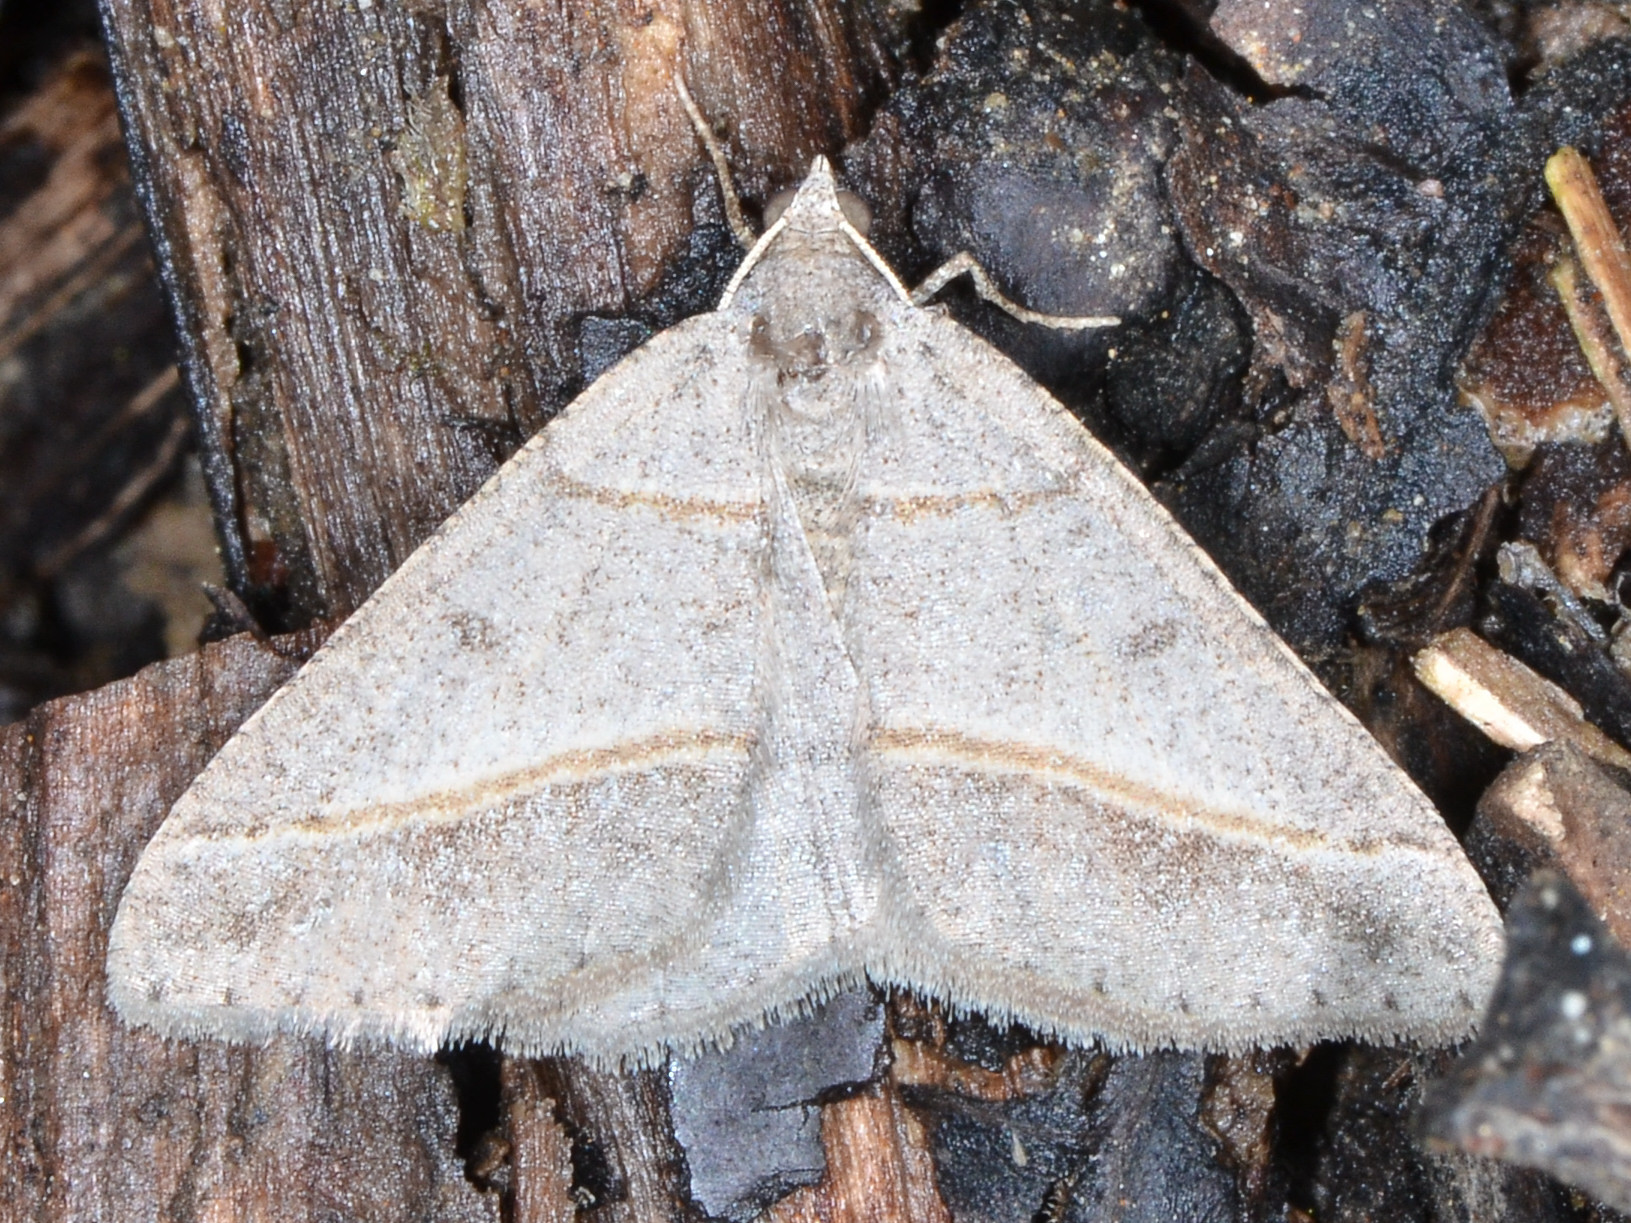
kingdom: Animalia
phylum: Arthropoda
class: Insecta
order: Lepidoptera
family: Geometridae
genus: Digrammia
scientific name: Digrammia neptaria
